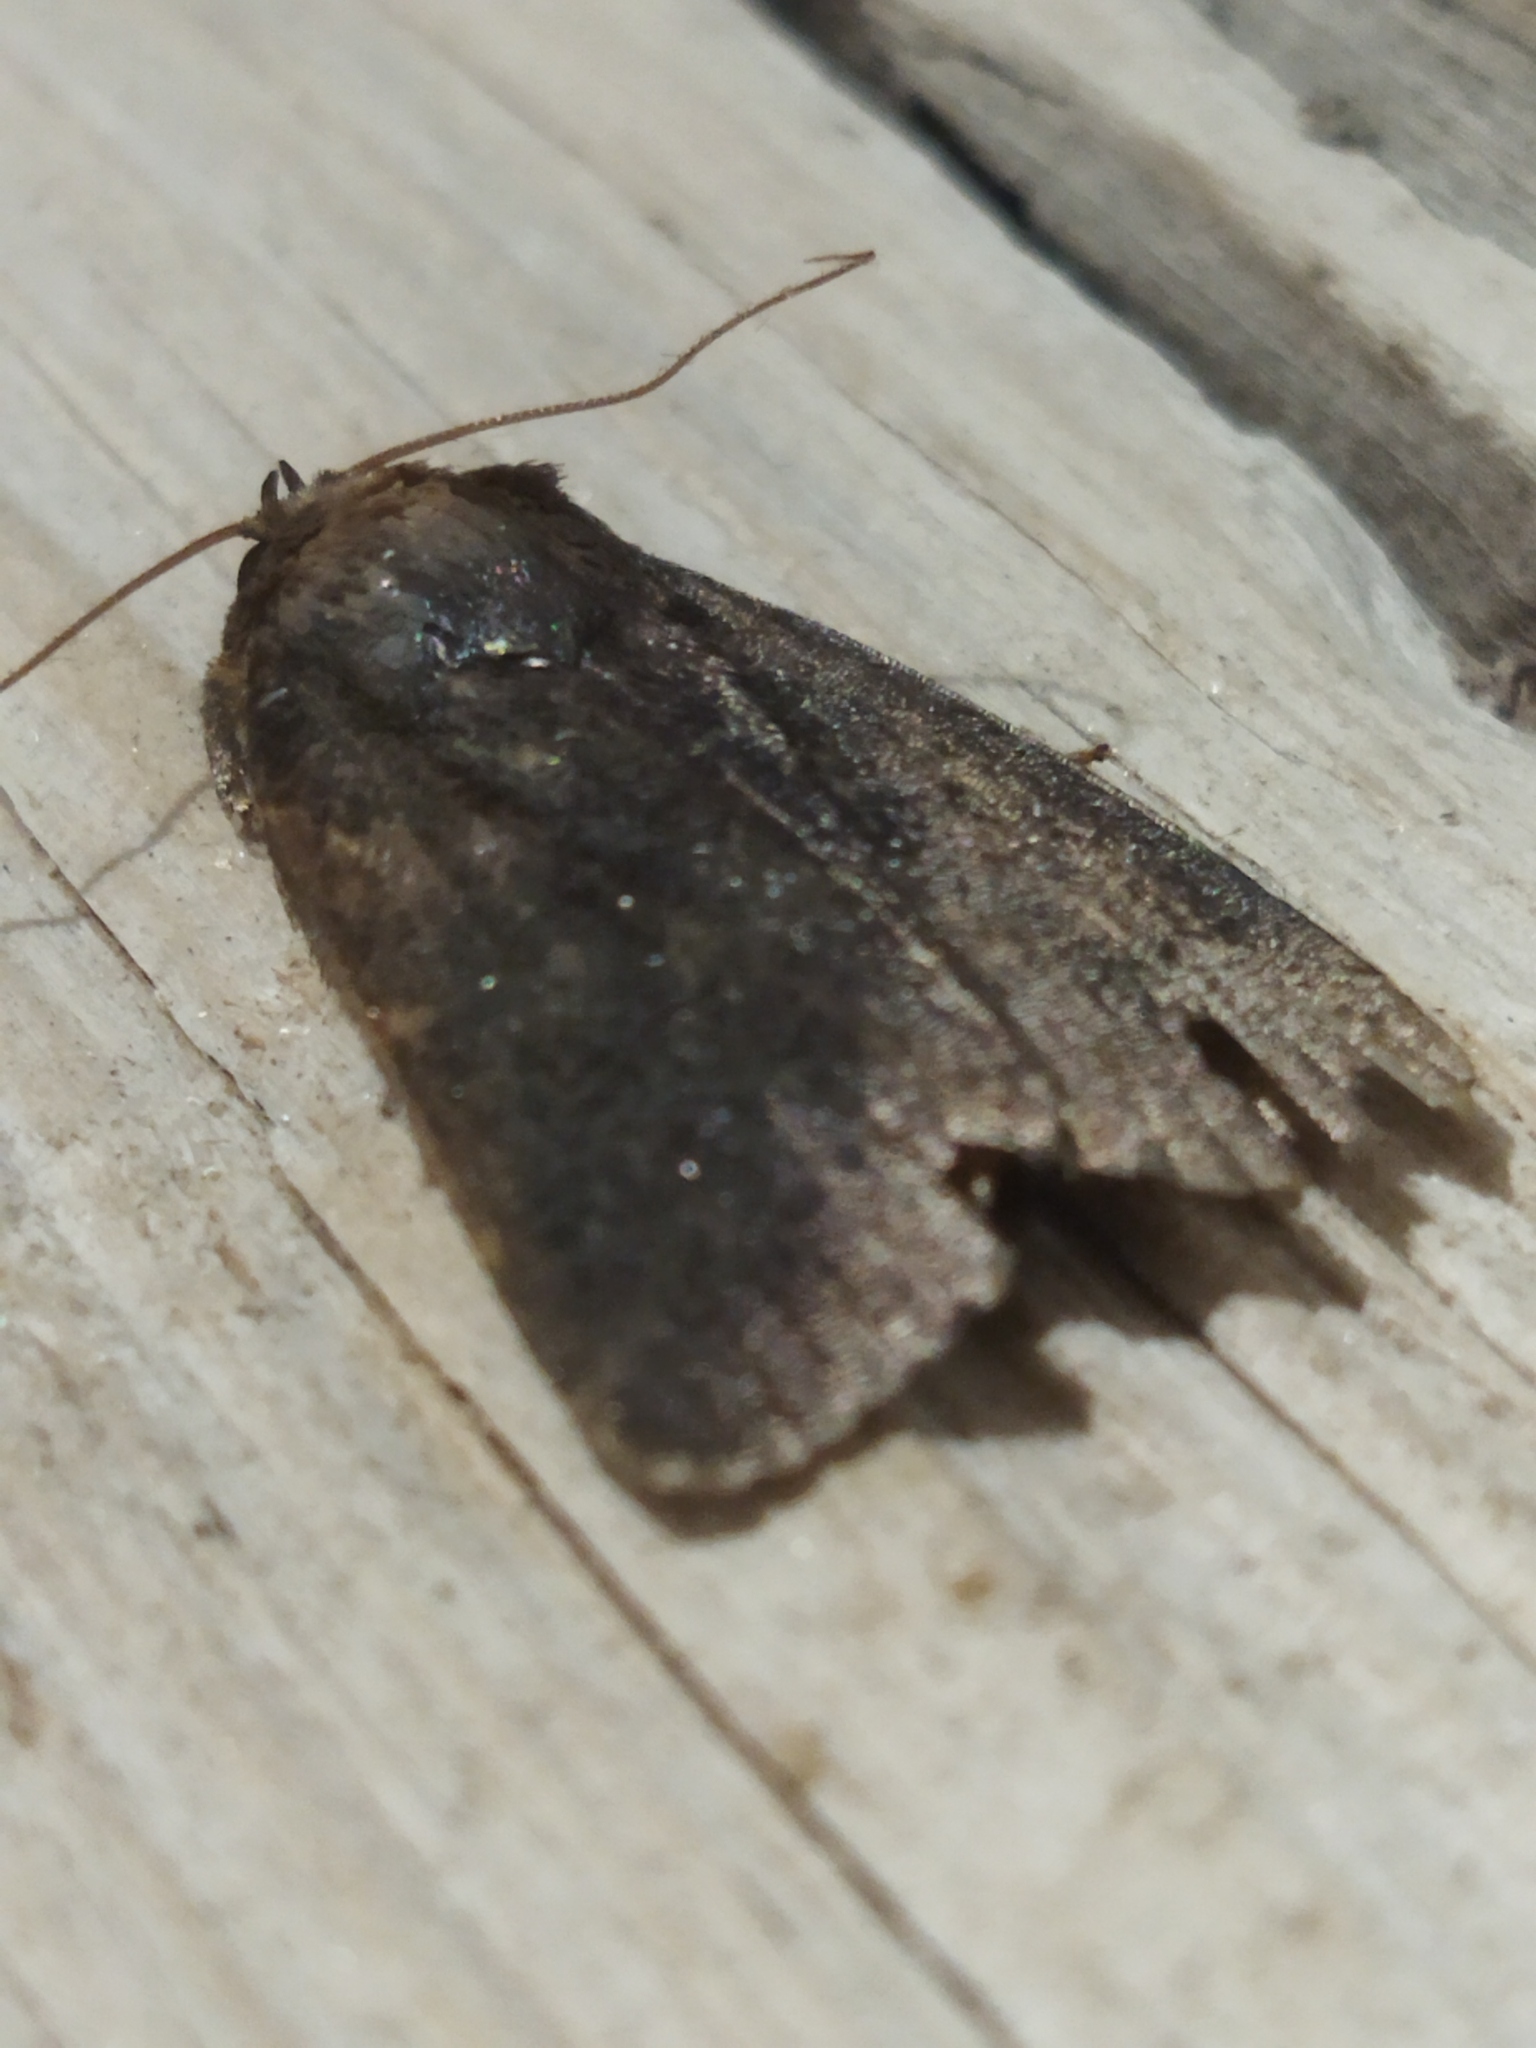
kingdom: Animalia
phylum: Arthropoda
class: Insecta
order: Lepidoptera
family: Noctuidae
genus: Amphipyra
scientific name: Amphipyra livida
